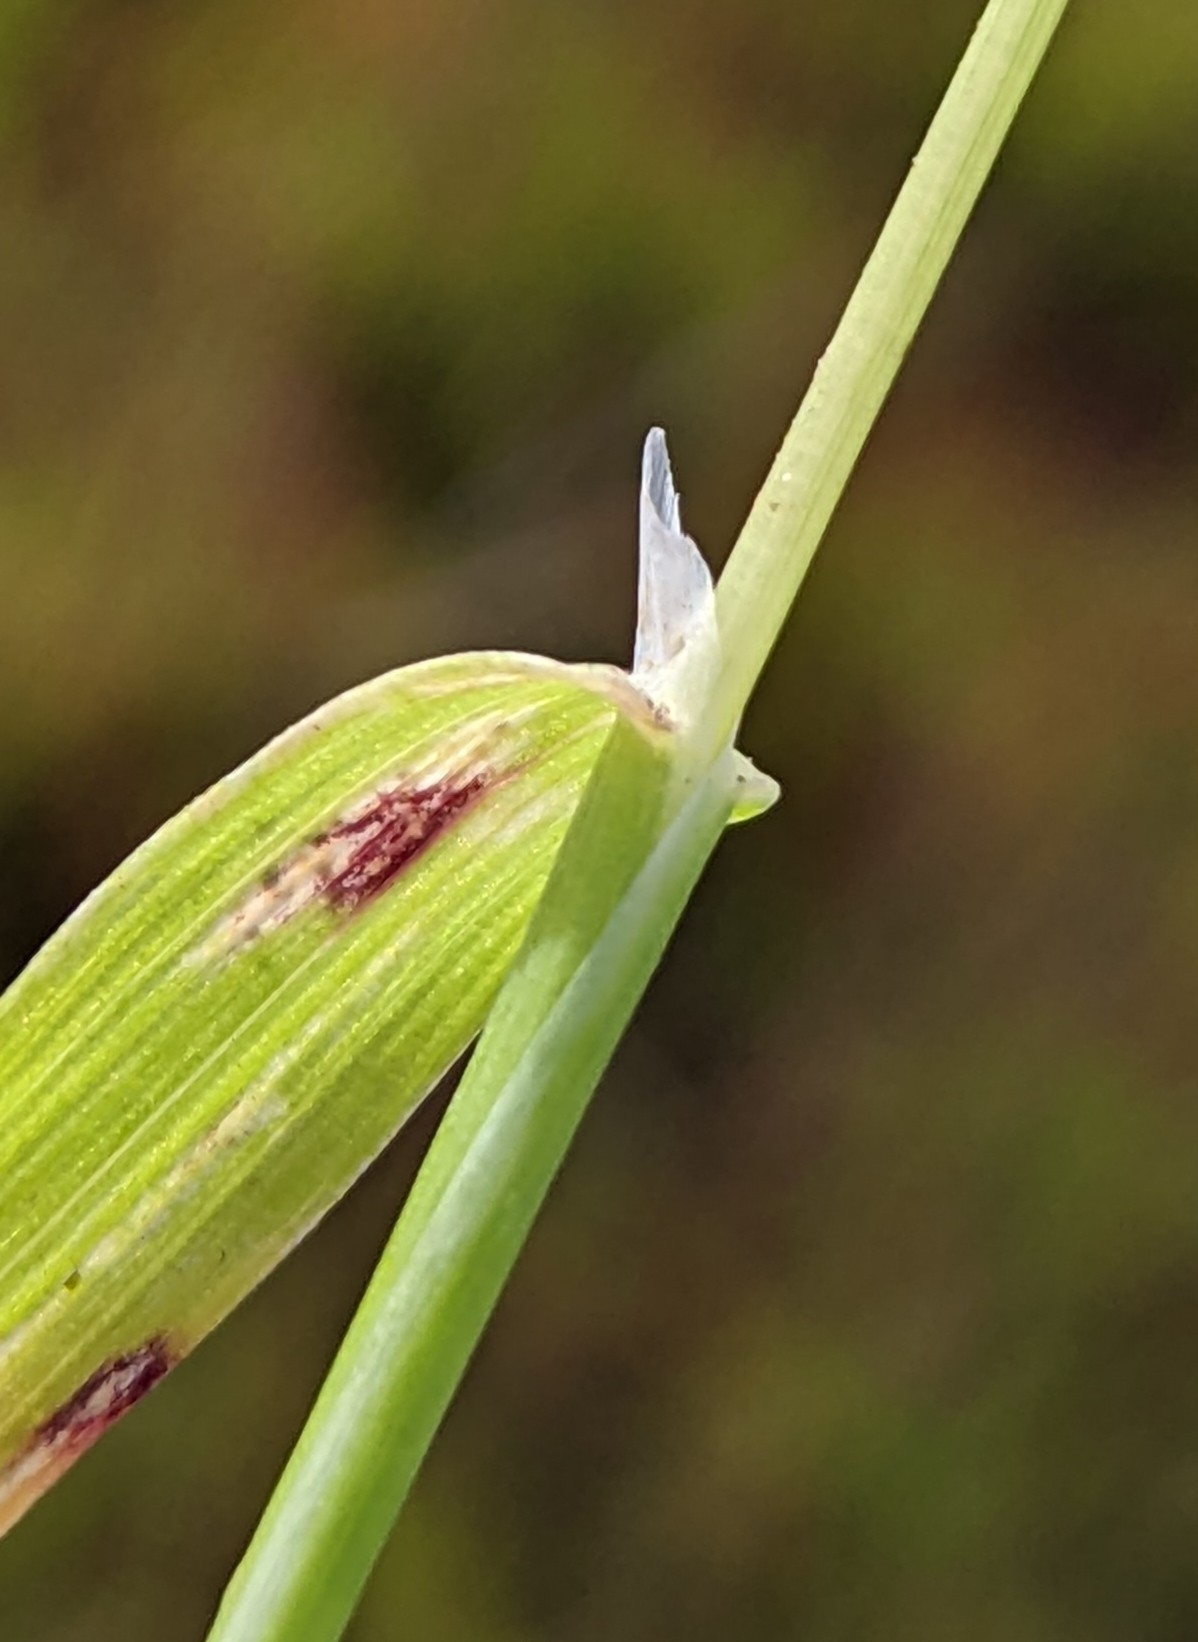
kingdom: Plantae
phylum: Tracheophyta
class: Liliopsida
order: Poales
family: Poaceae
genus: Briza
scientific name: Briza maxima
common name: Big quakinggrass
